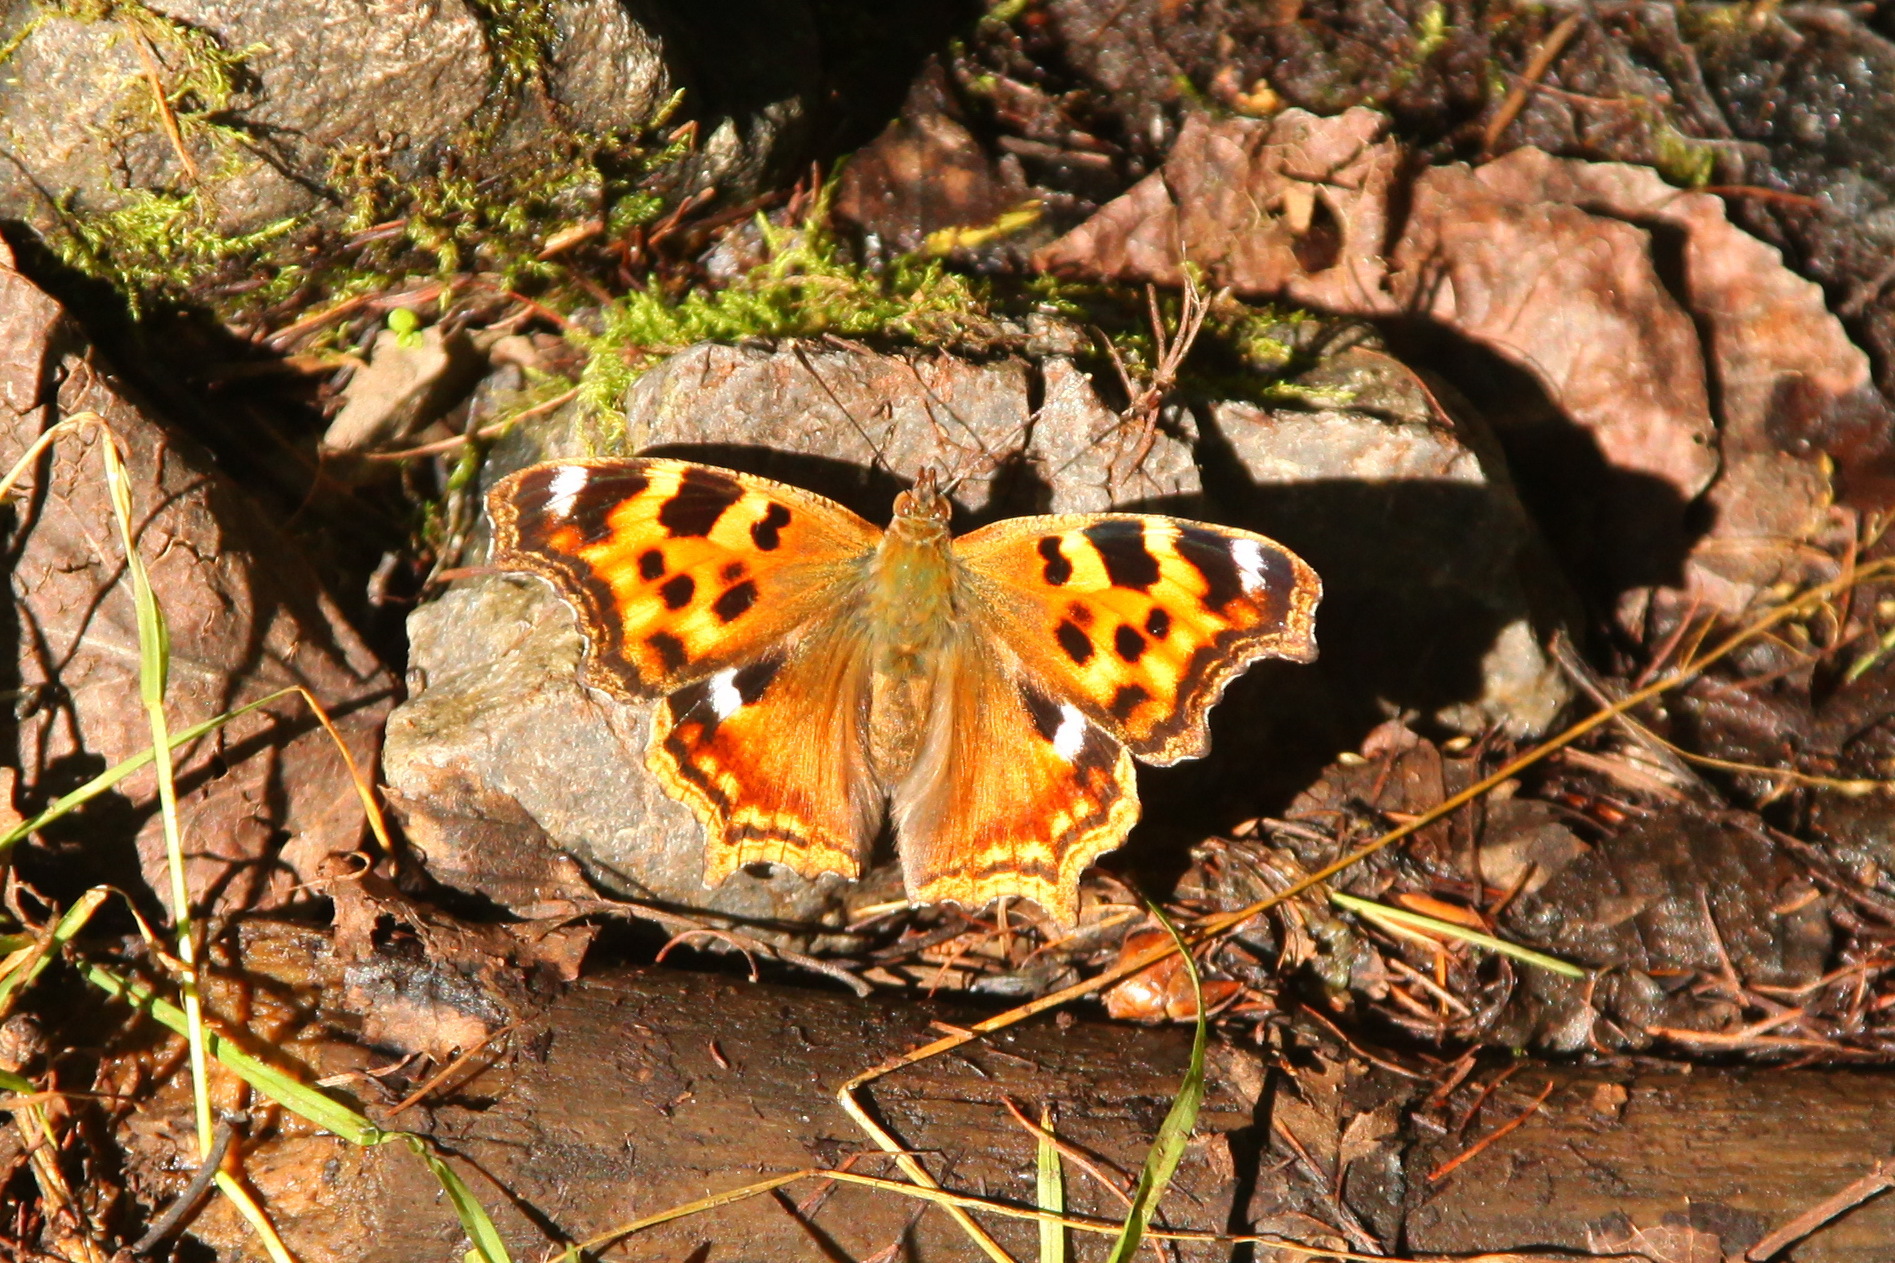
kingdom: Animalia
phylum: Arthropoda
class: Insecta
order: Lepidoptera
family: Nymphalidae
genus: Polygonia
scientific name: Polygonia vaualbum
